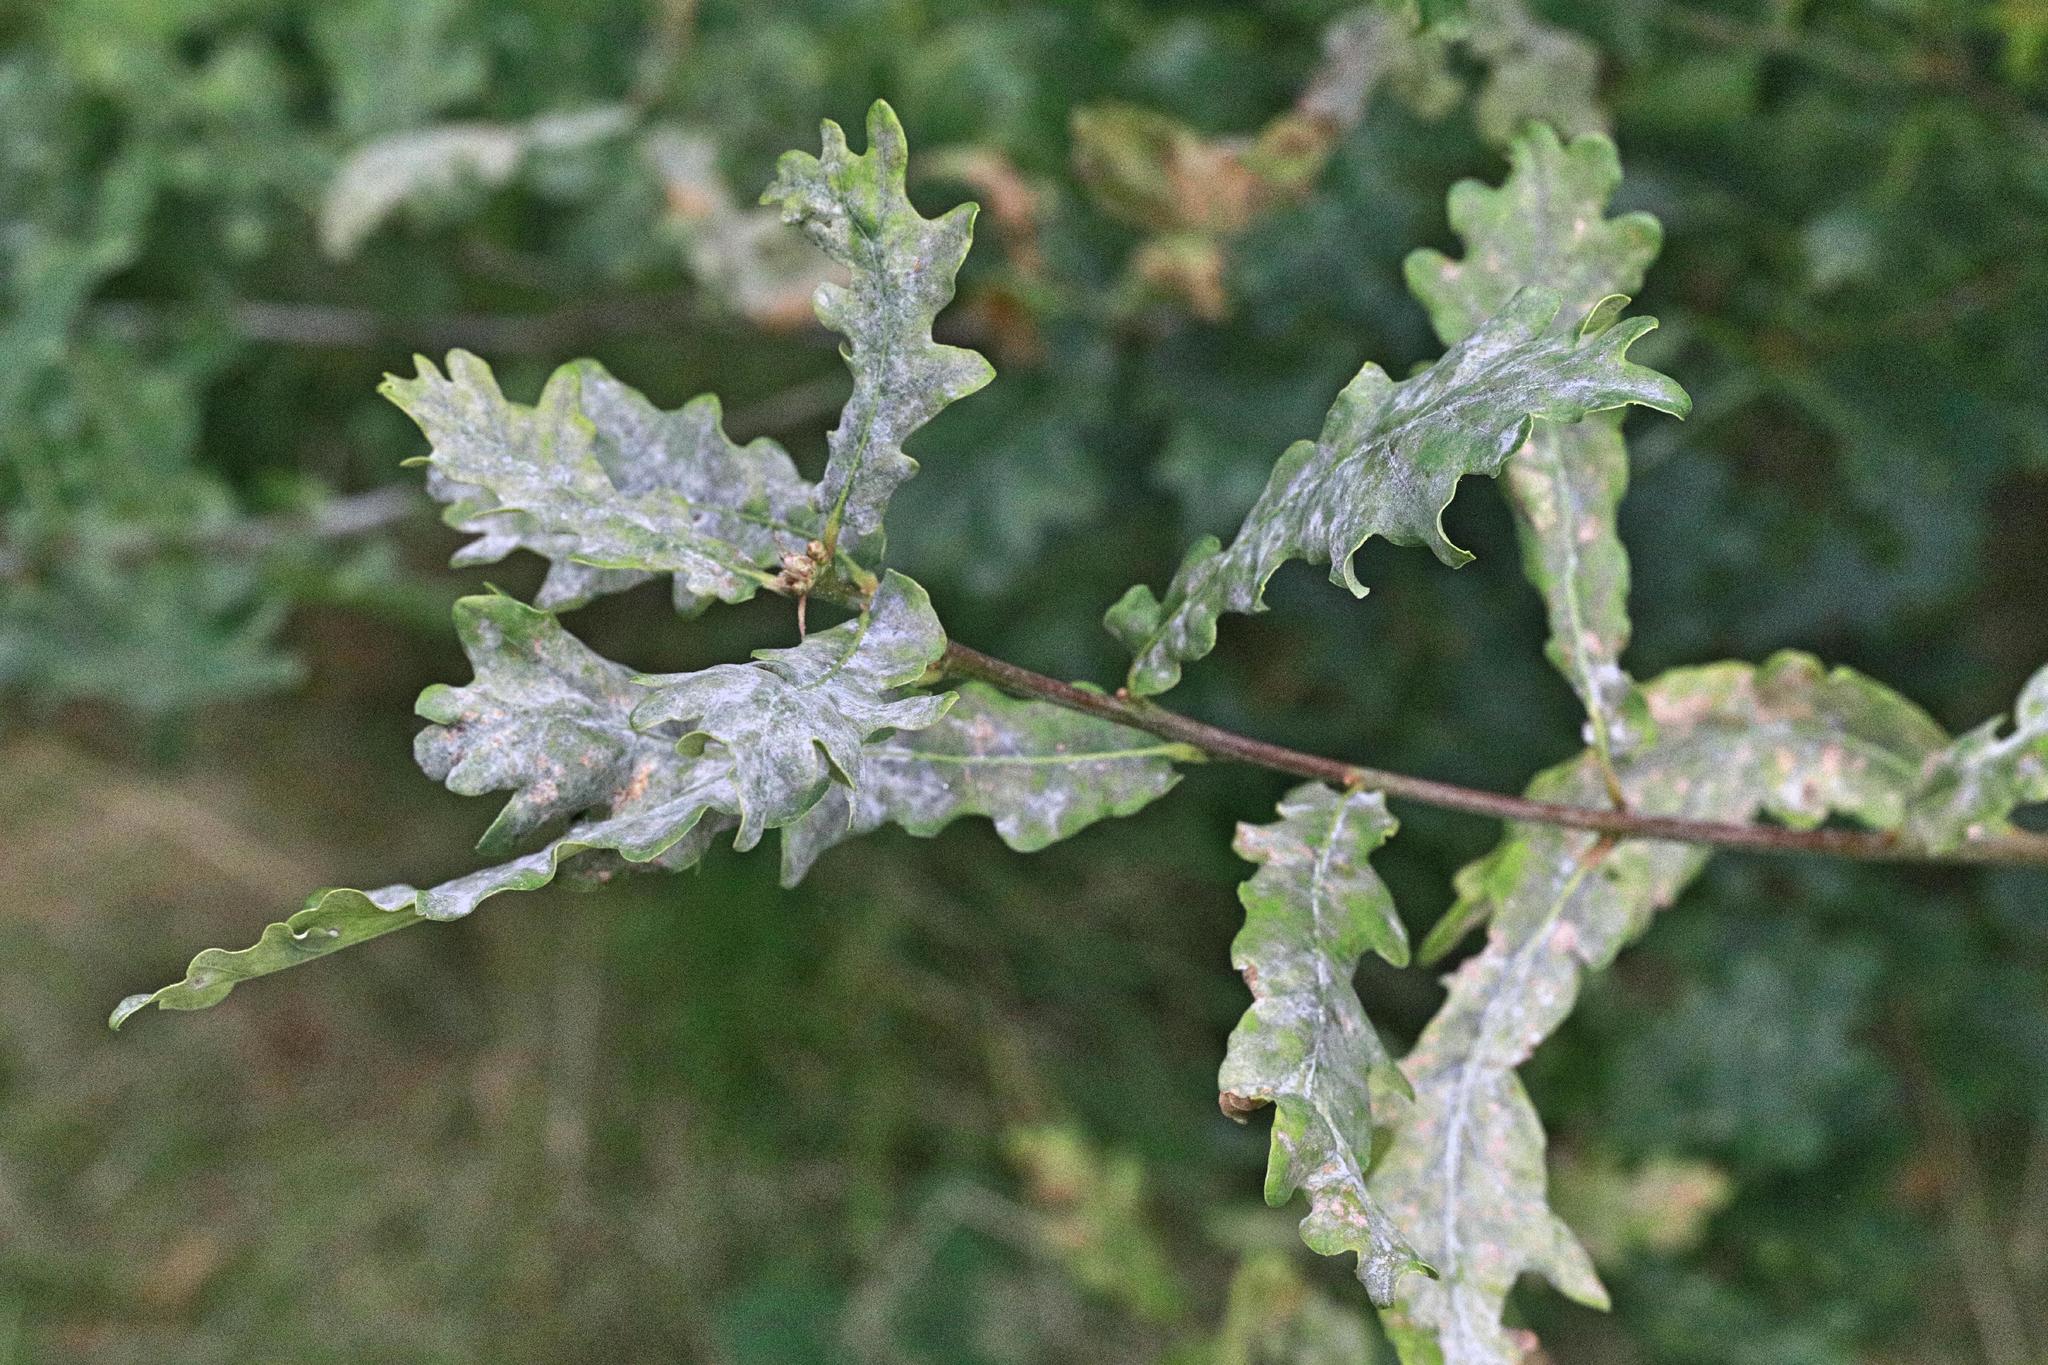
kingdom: Fungi
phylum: Ascomycota
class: Leotiomycetes
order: Helotiales
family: Erysiphaceae
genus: Erysiphe
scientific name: Erysiphe alphitoides
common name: Oak mildew
